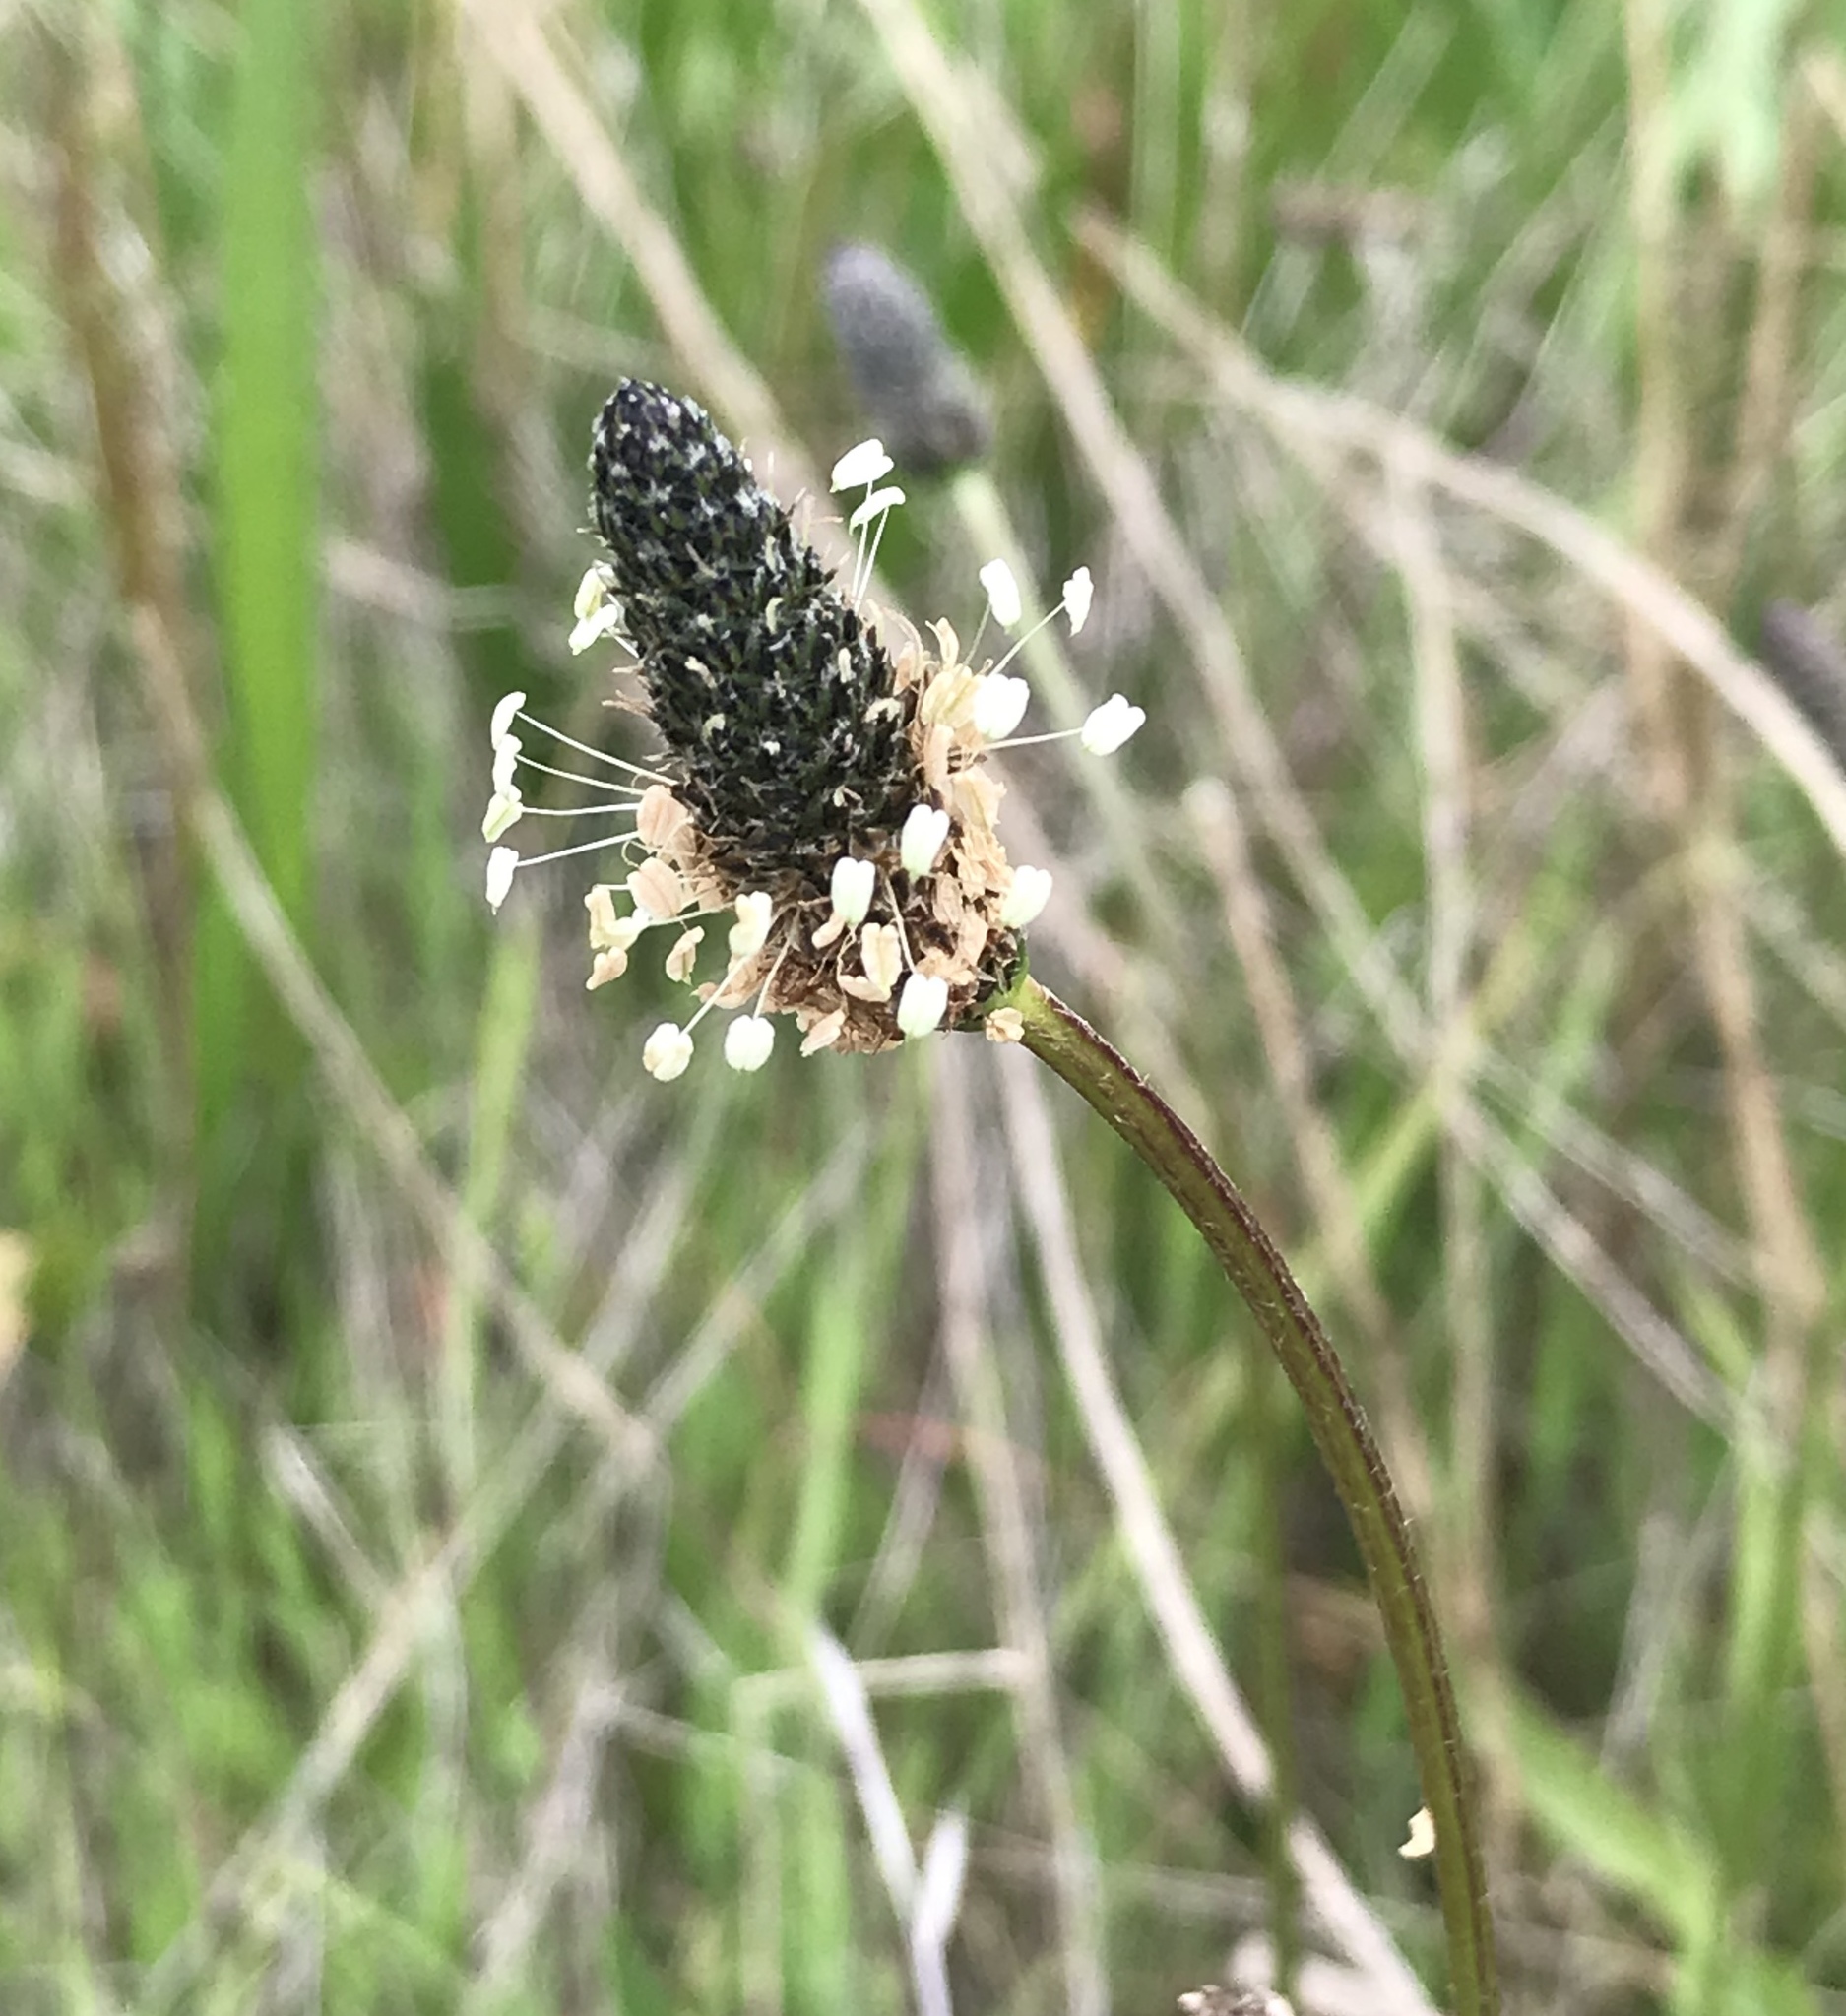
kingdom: Plantae
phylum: Tracheophyta
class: Magnoliopsida
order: Lamiales
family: Plantaginaceae
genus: Plantago
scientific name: Plantago lanceolata
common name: Ribwort plantain
